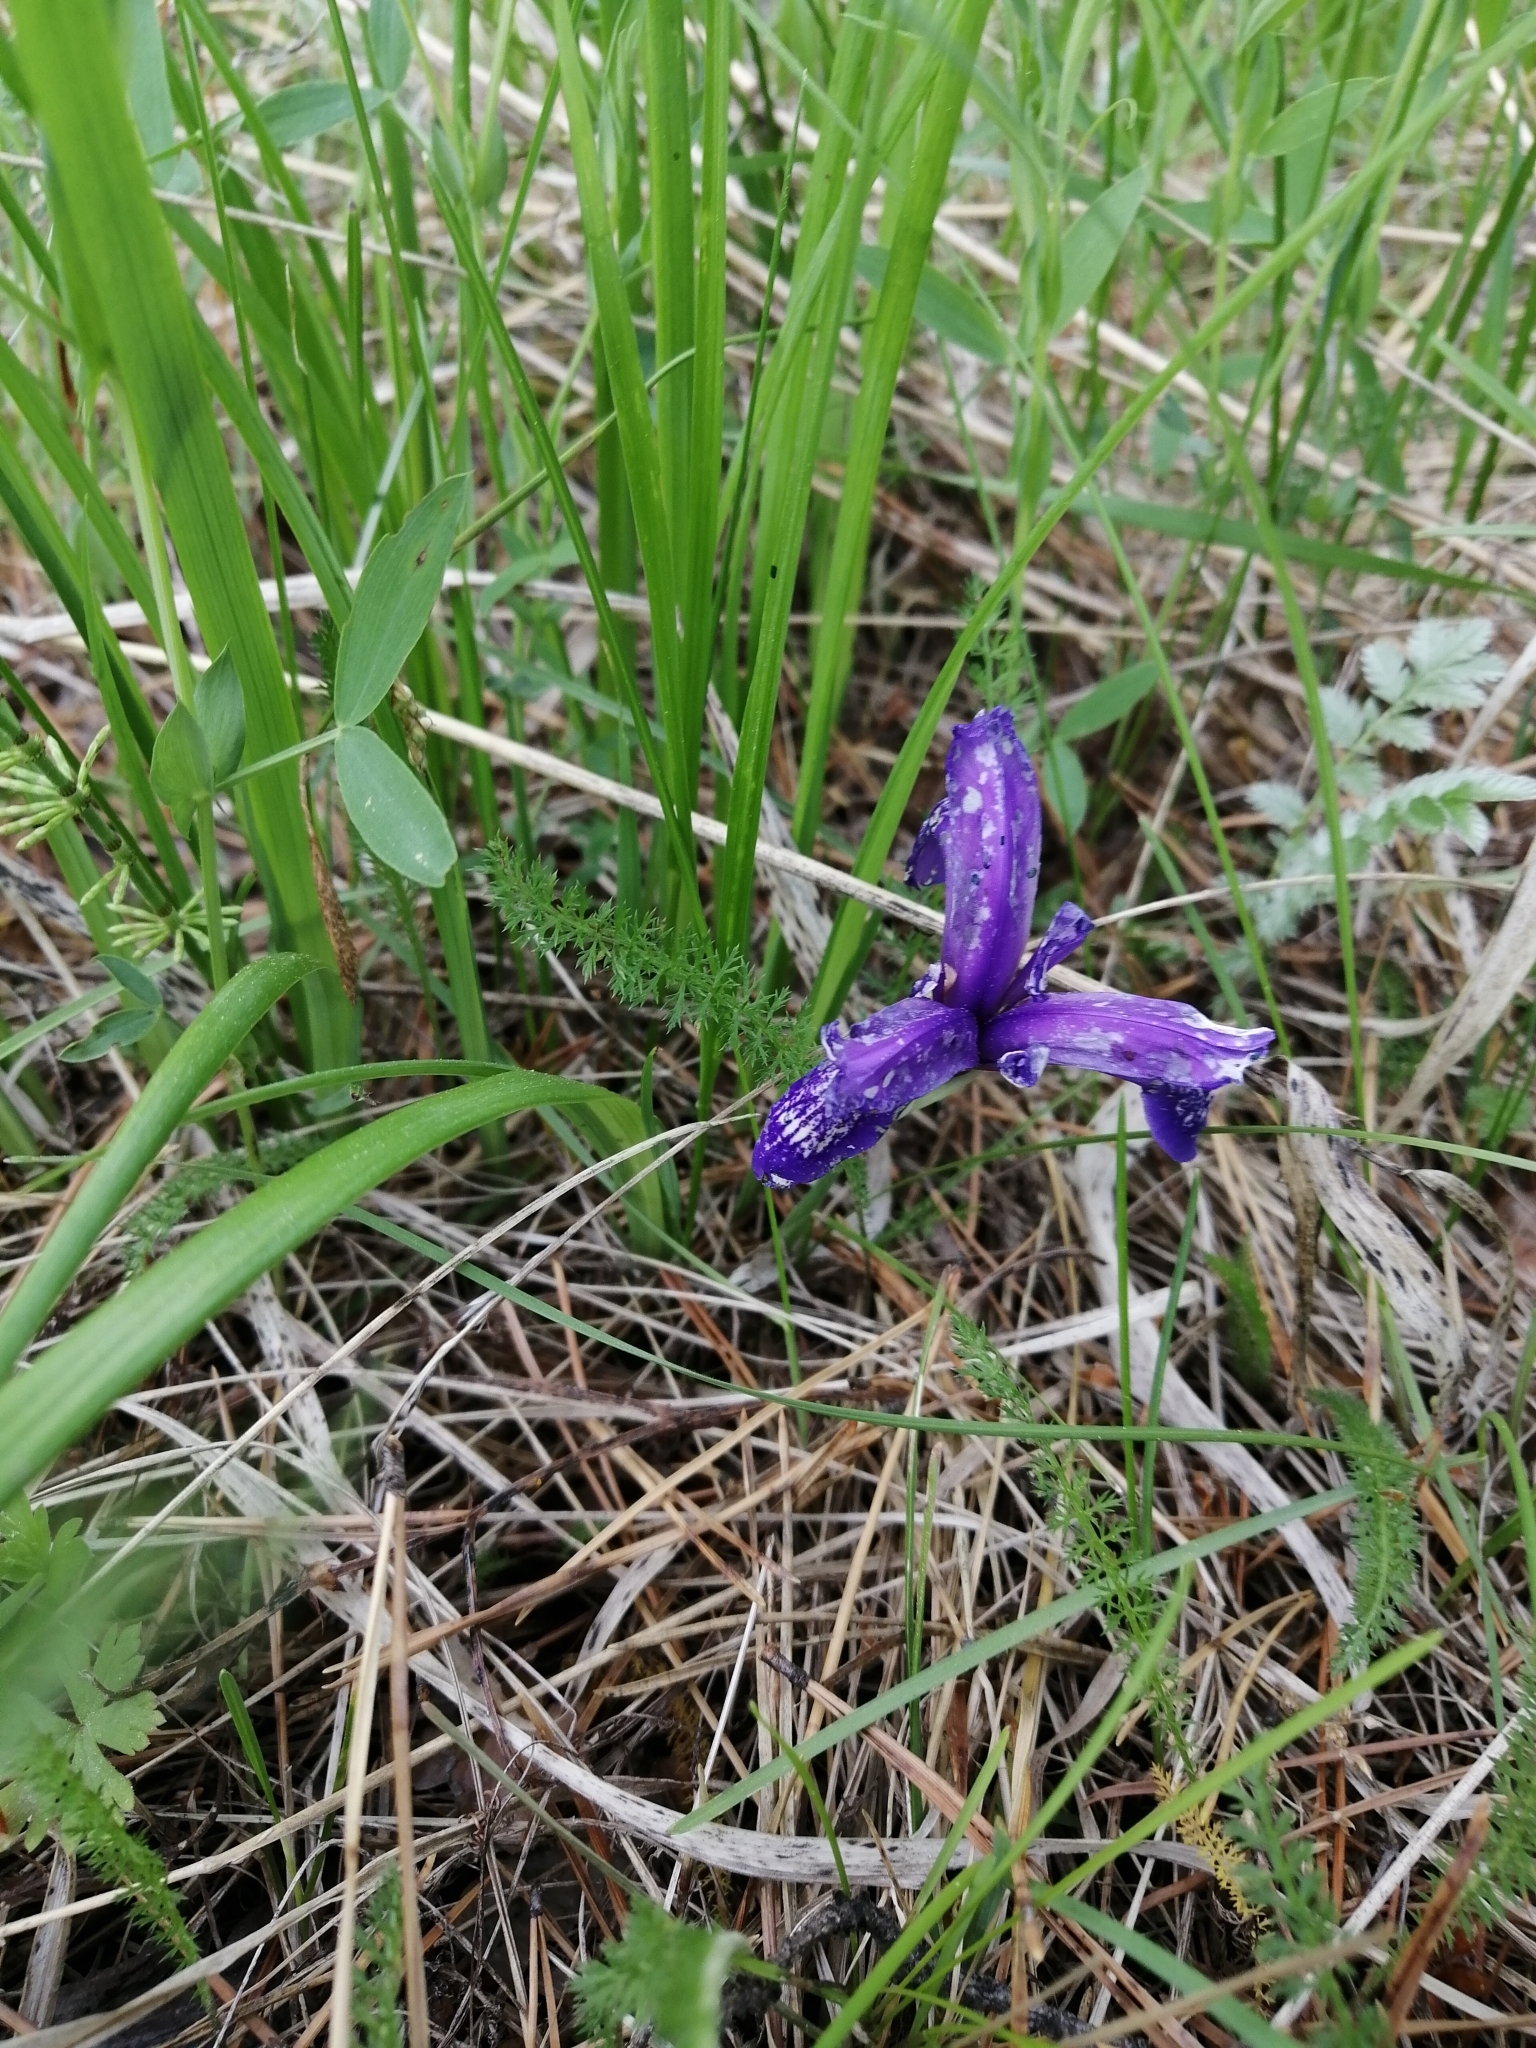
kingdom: Plantae
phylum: Tracheophyta
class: Liliopsida
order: Asparagales
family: Iridaceae
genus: Iris
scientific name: Iris ruthenica
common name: Purple-bract iris
